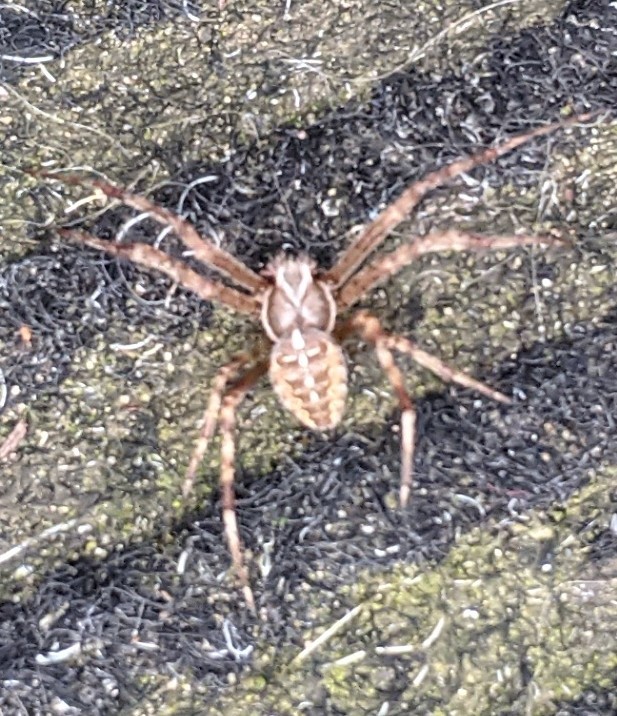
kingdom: Animalia
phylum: Arthropoda
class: Arachnida
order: Araneae
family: Araneidae
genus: Araneus
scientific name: Araneus diadematus
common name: Cross orbweaver
